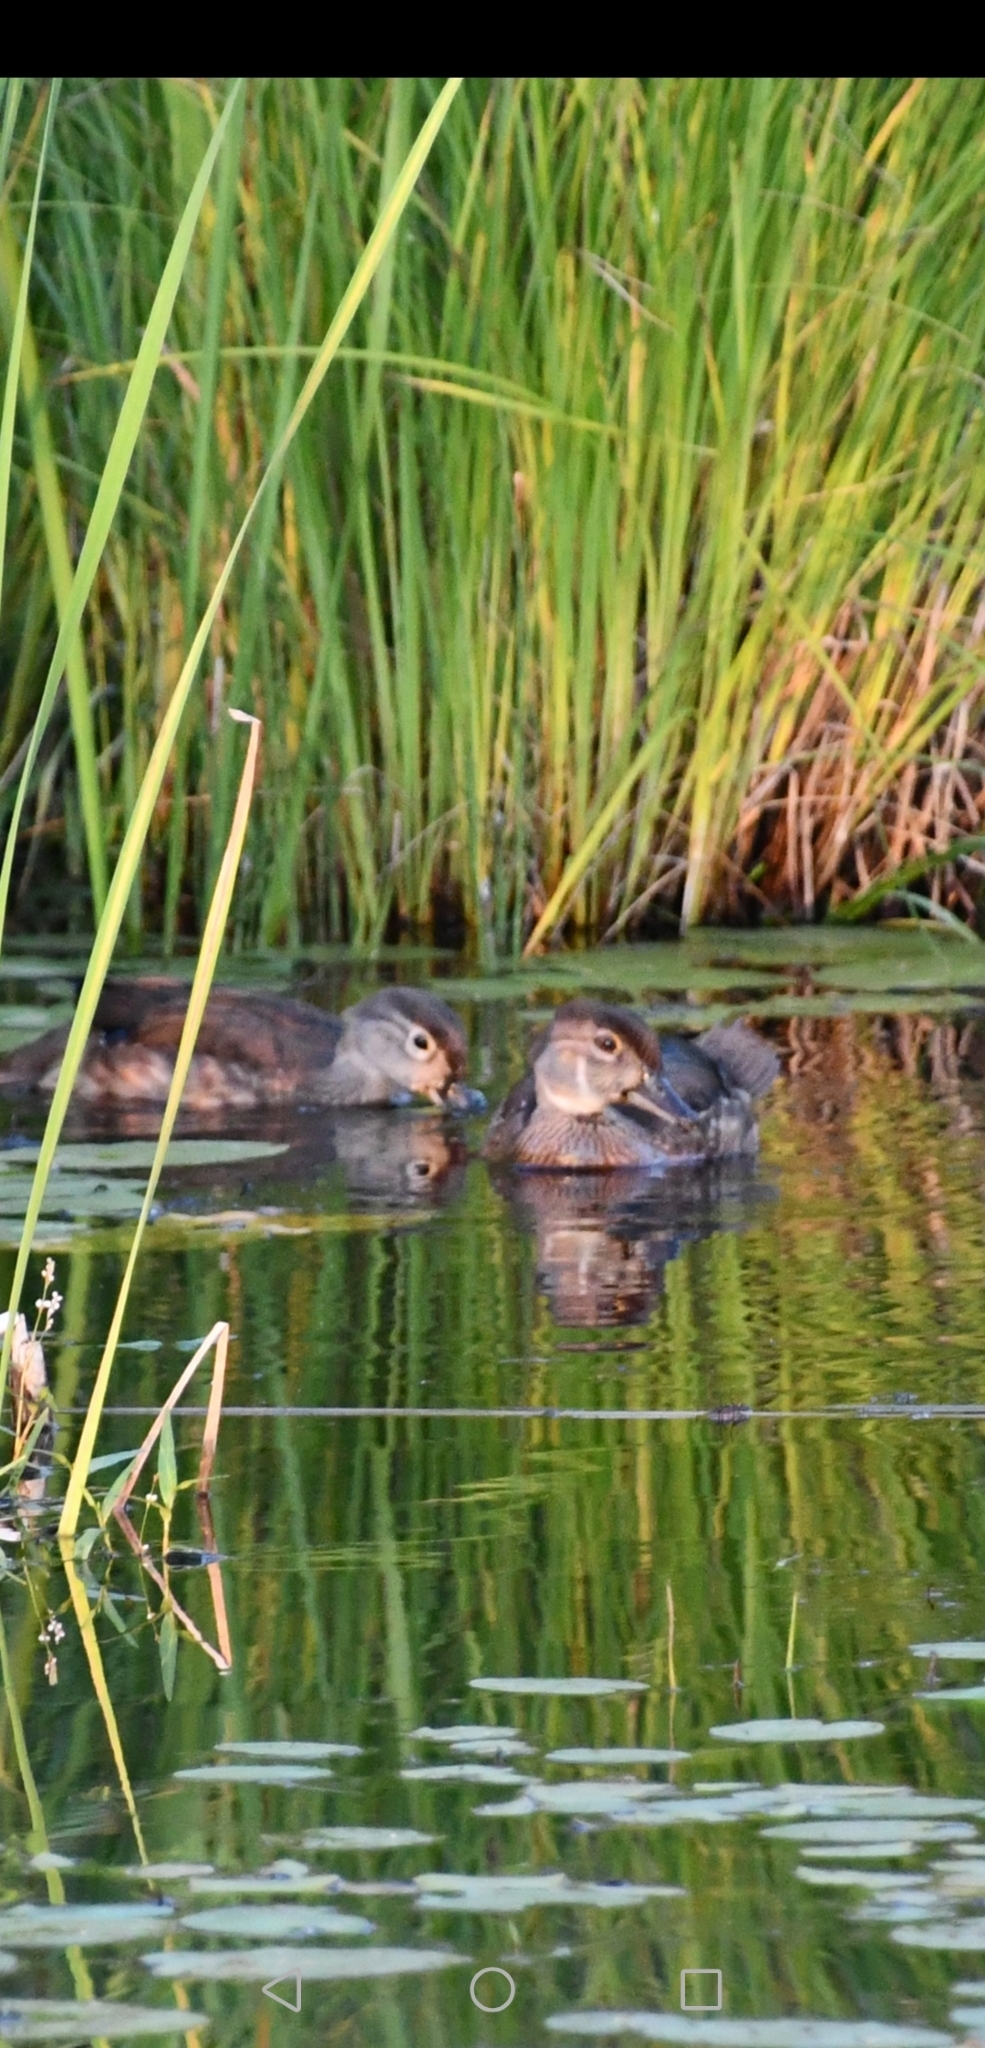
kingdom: Animalia
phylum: Chordata
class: Aves
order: Anseriformes
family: Anatidae
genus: Aix
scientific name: Aix sponsa
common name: Wood duck
